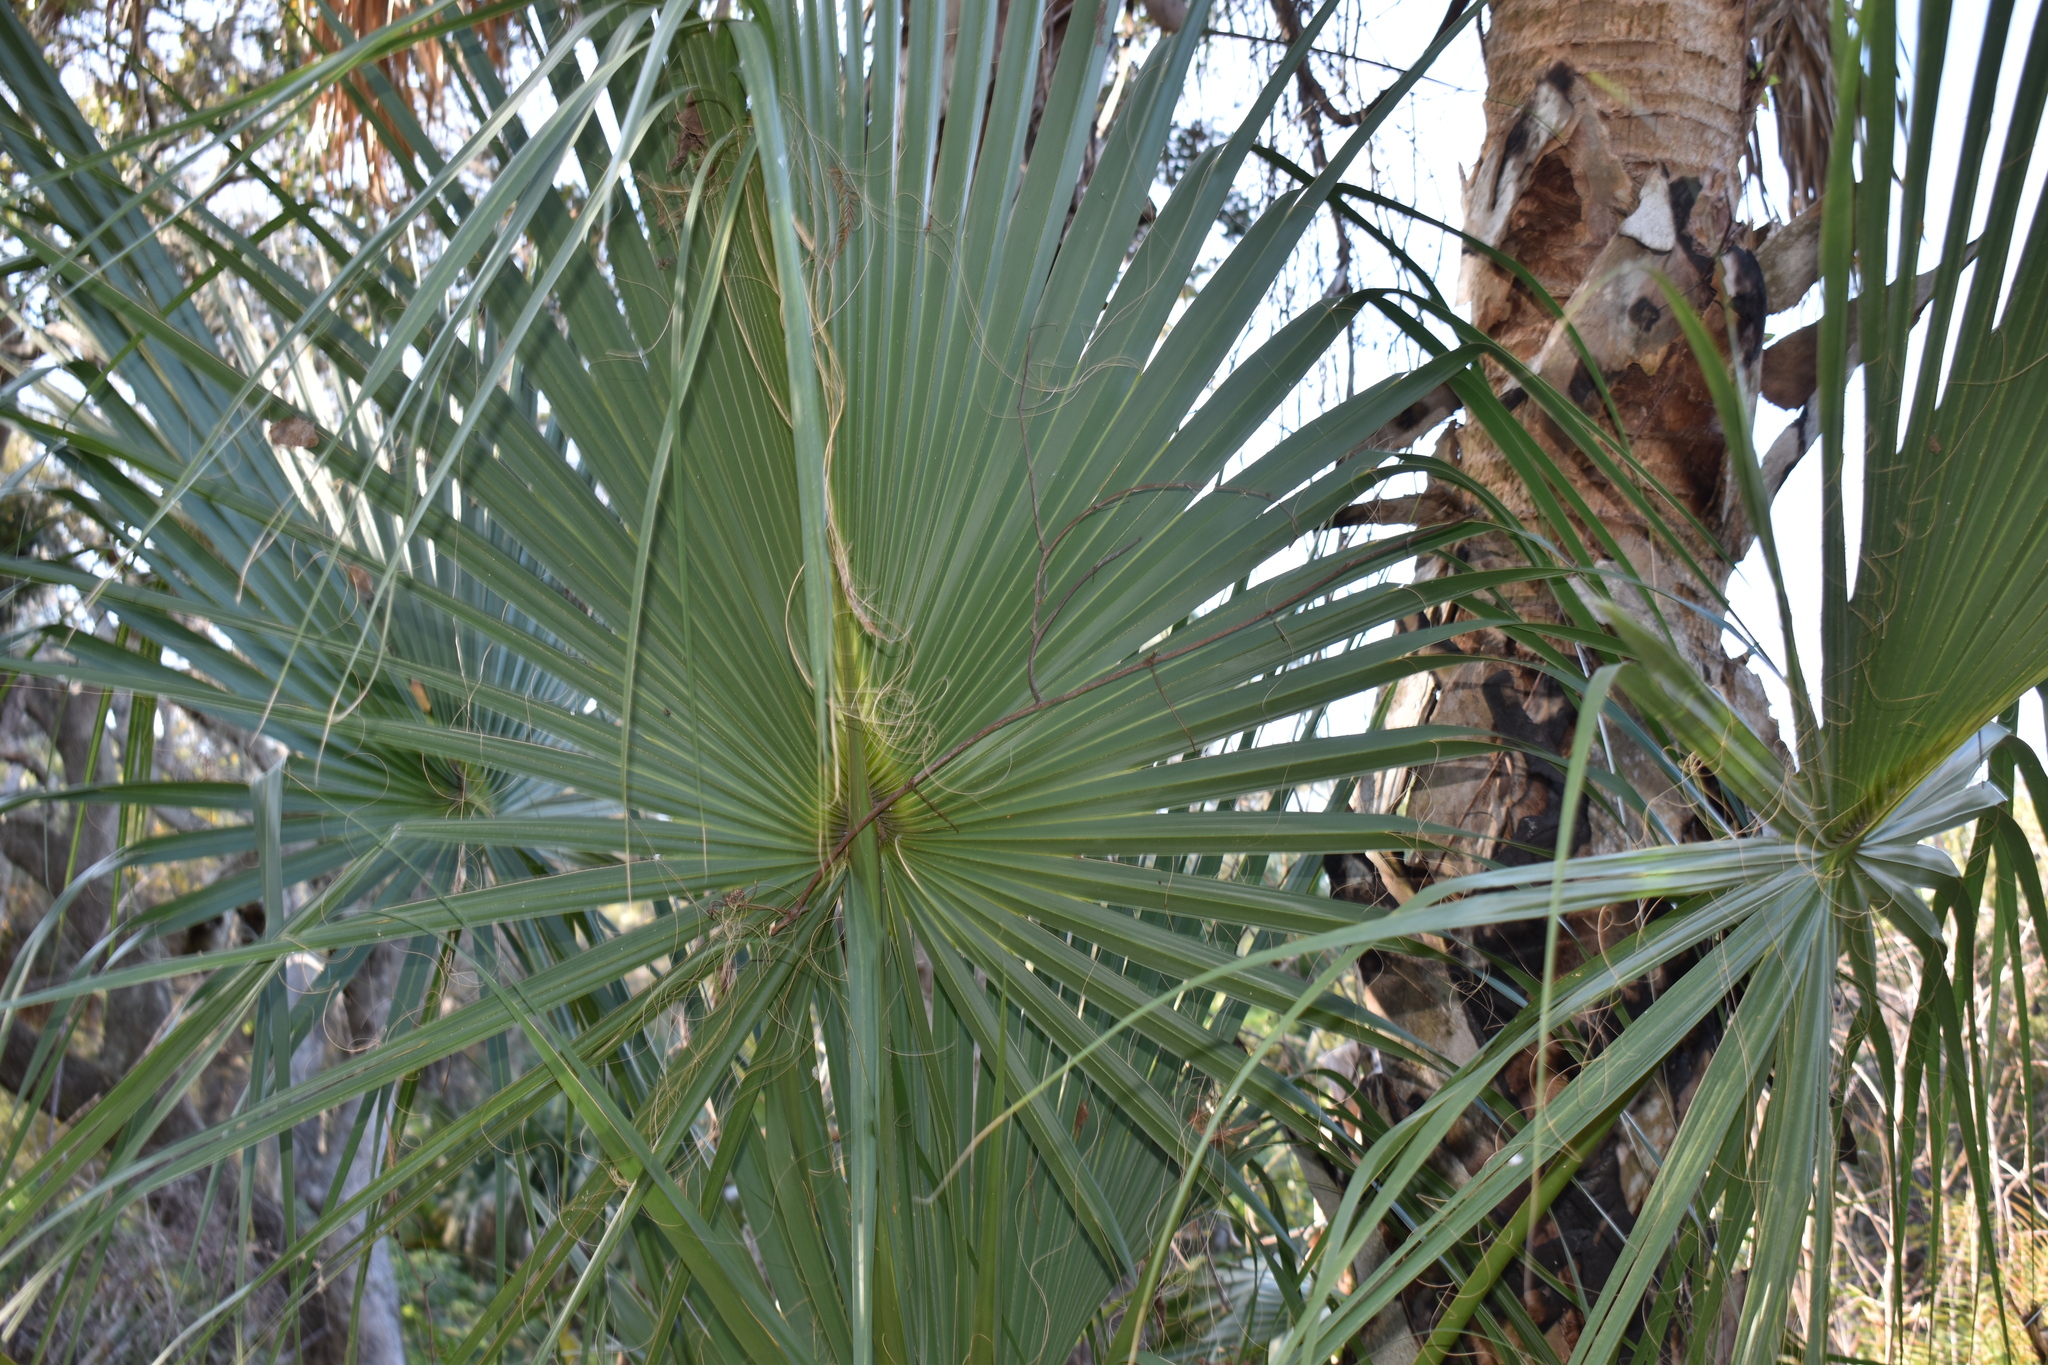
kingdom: Plantae
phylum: Tracheophyta
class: Liliopsida
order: Arecales
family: Arecaceae
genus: Sabal
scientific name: Sabal palmetto
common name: Blue palmetto
